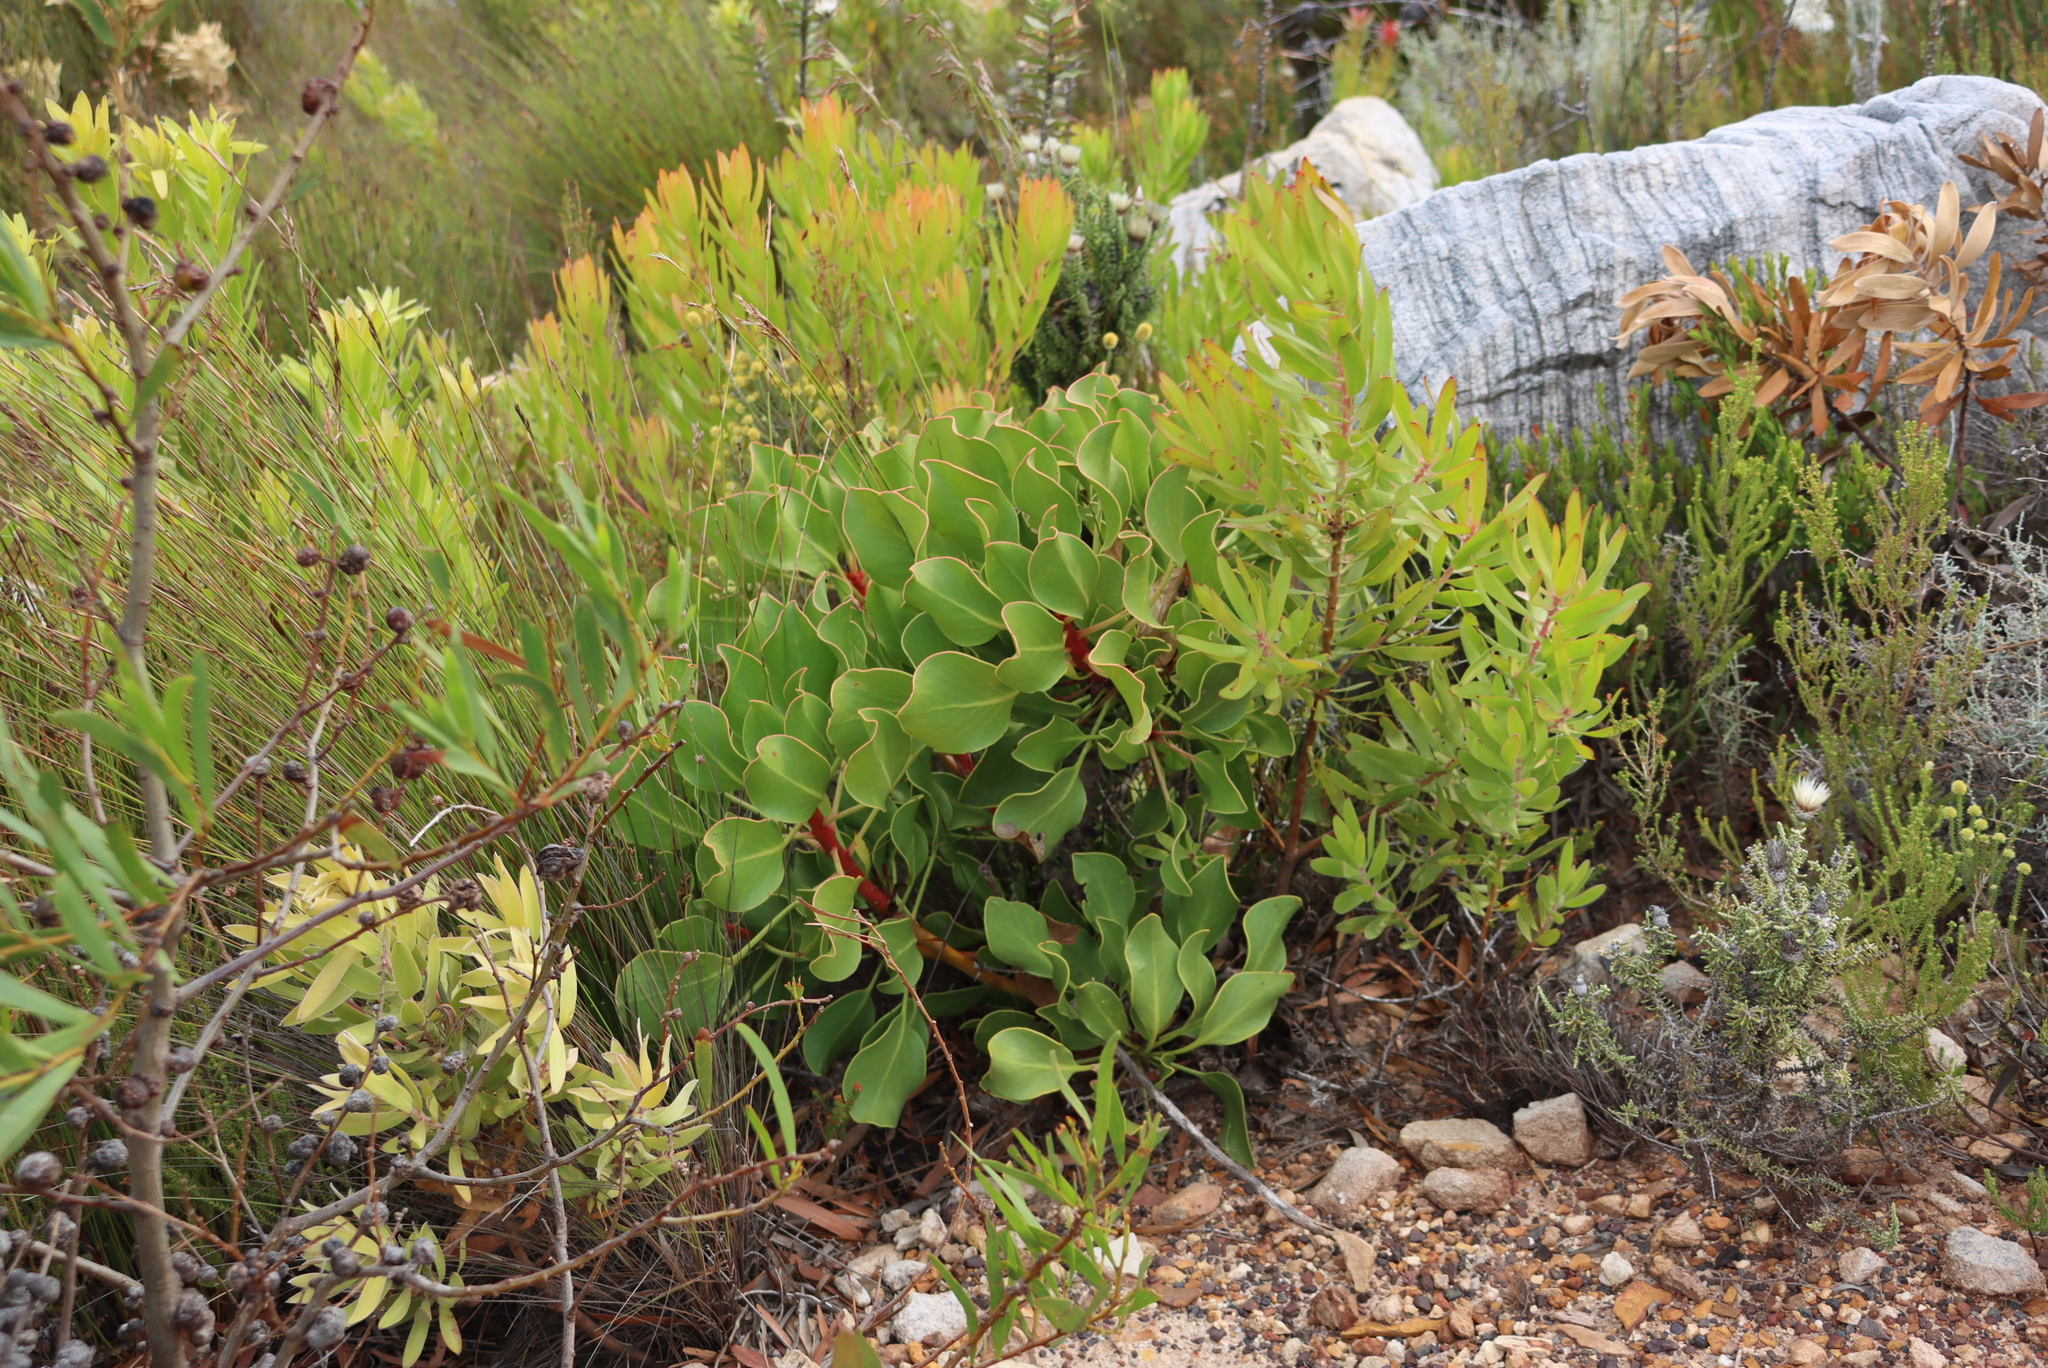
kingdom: Plantae
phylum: Tracheophyta
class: Magnoliopsida
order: Proteales
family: Proteaceae
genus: Protea
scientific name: Protea cynaroides
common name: King protea
